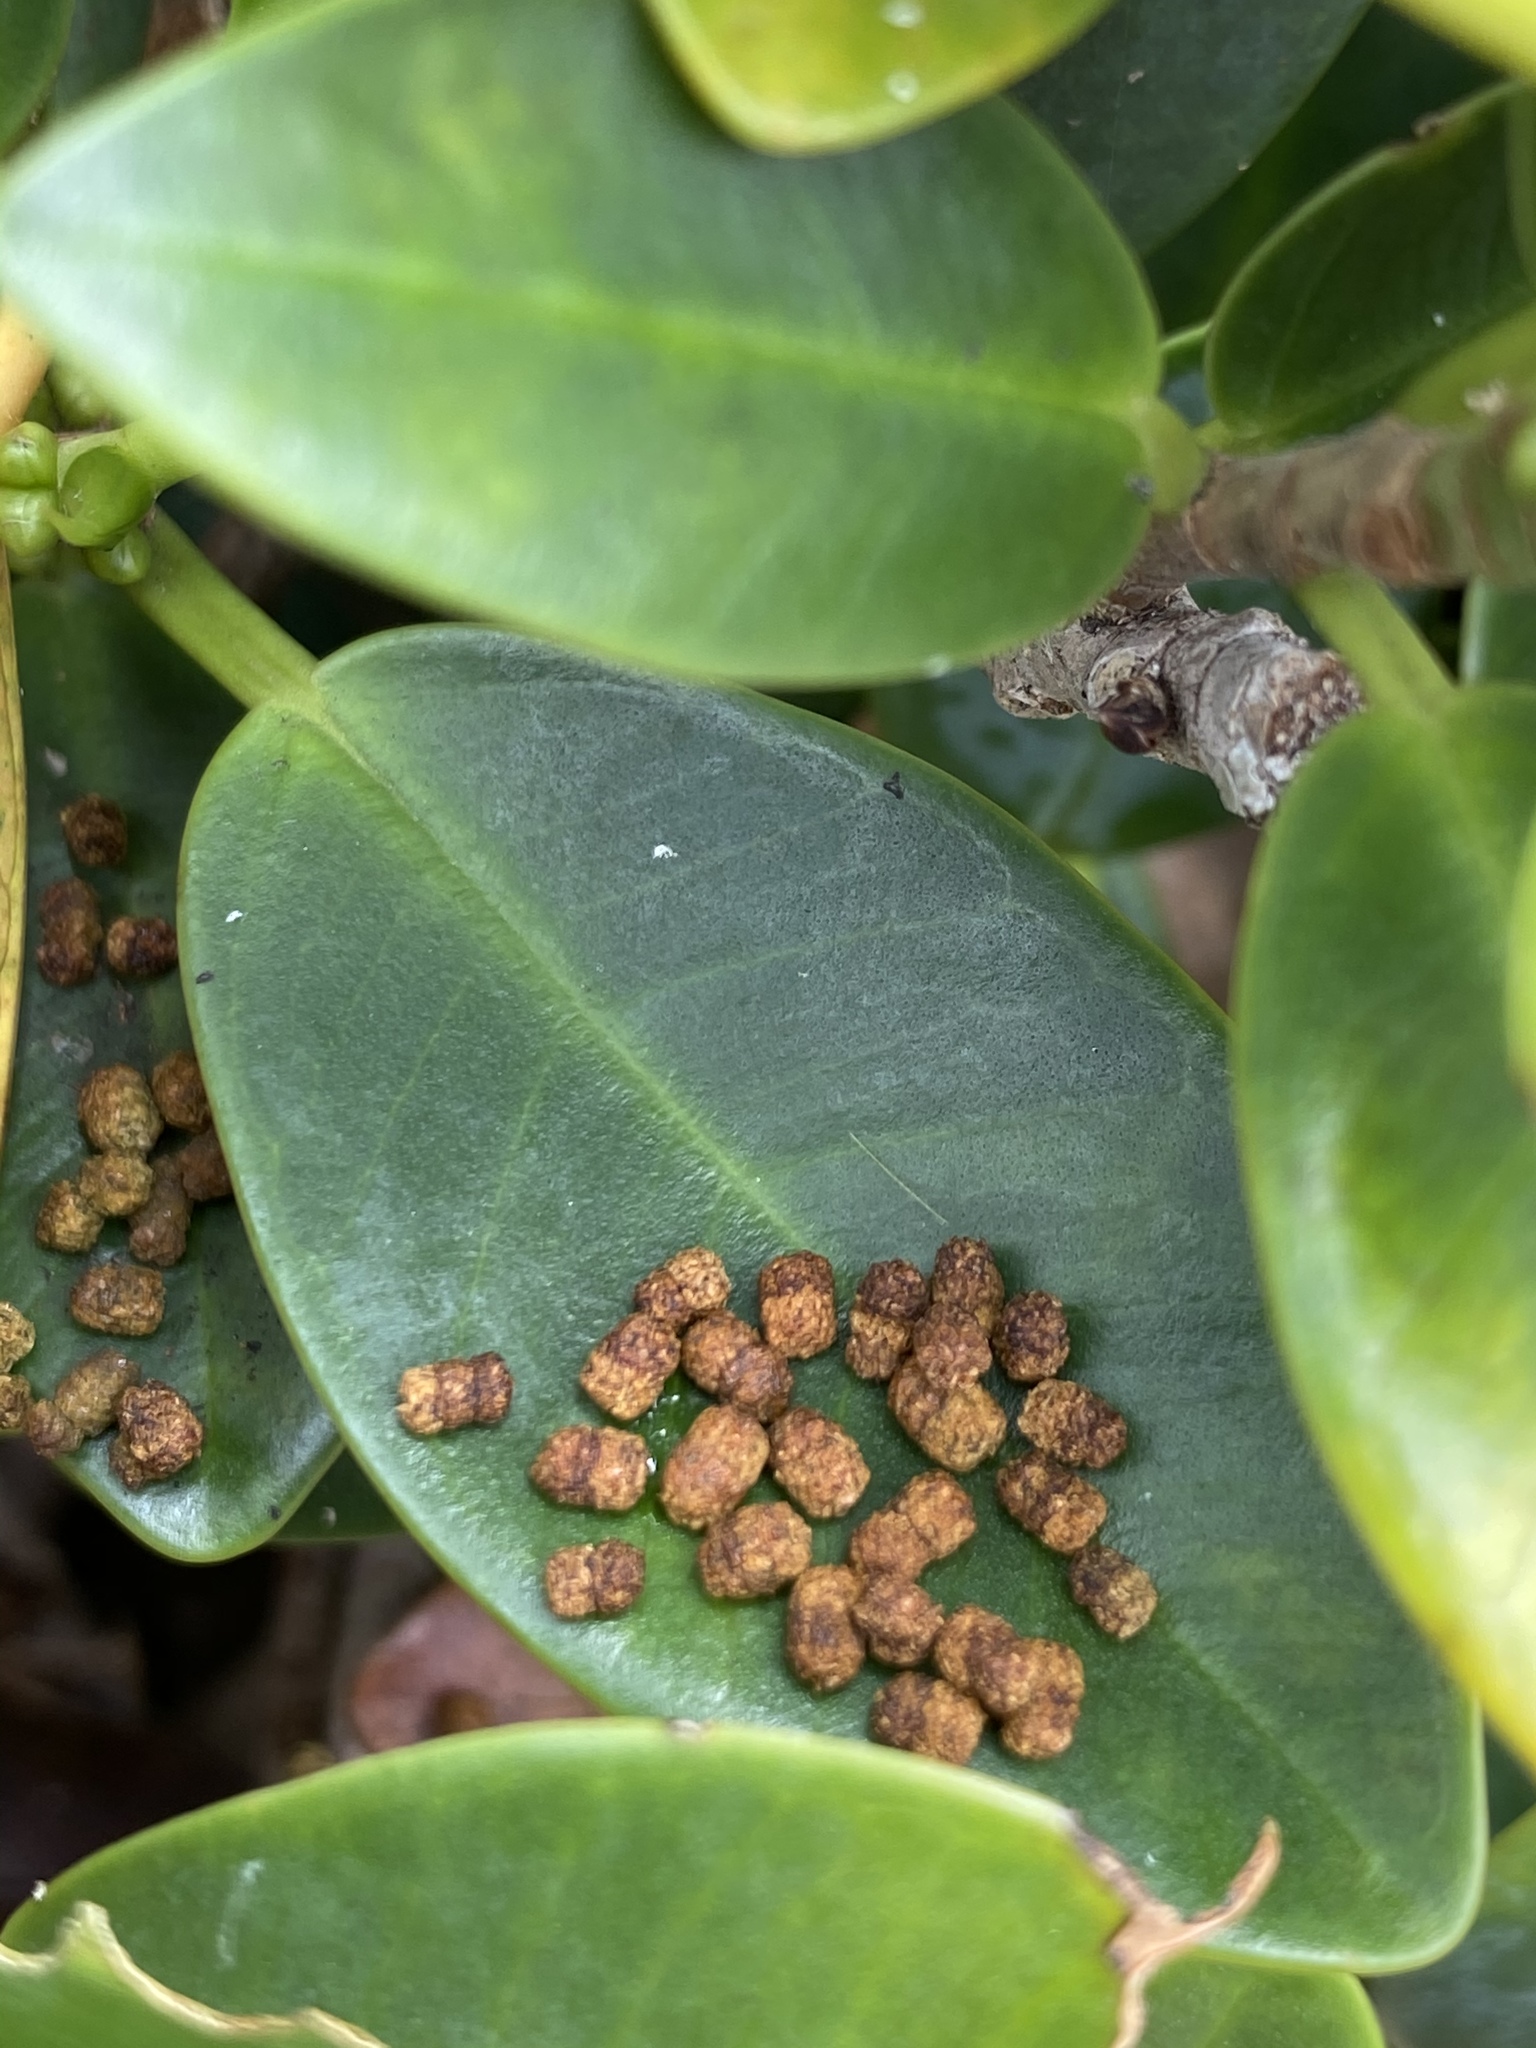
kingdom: Animalia
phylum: Arthropoda
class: Insecta
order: Lepidoptera
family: Erebidae
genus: Lymire
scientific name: Lymire edwardsii
